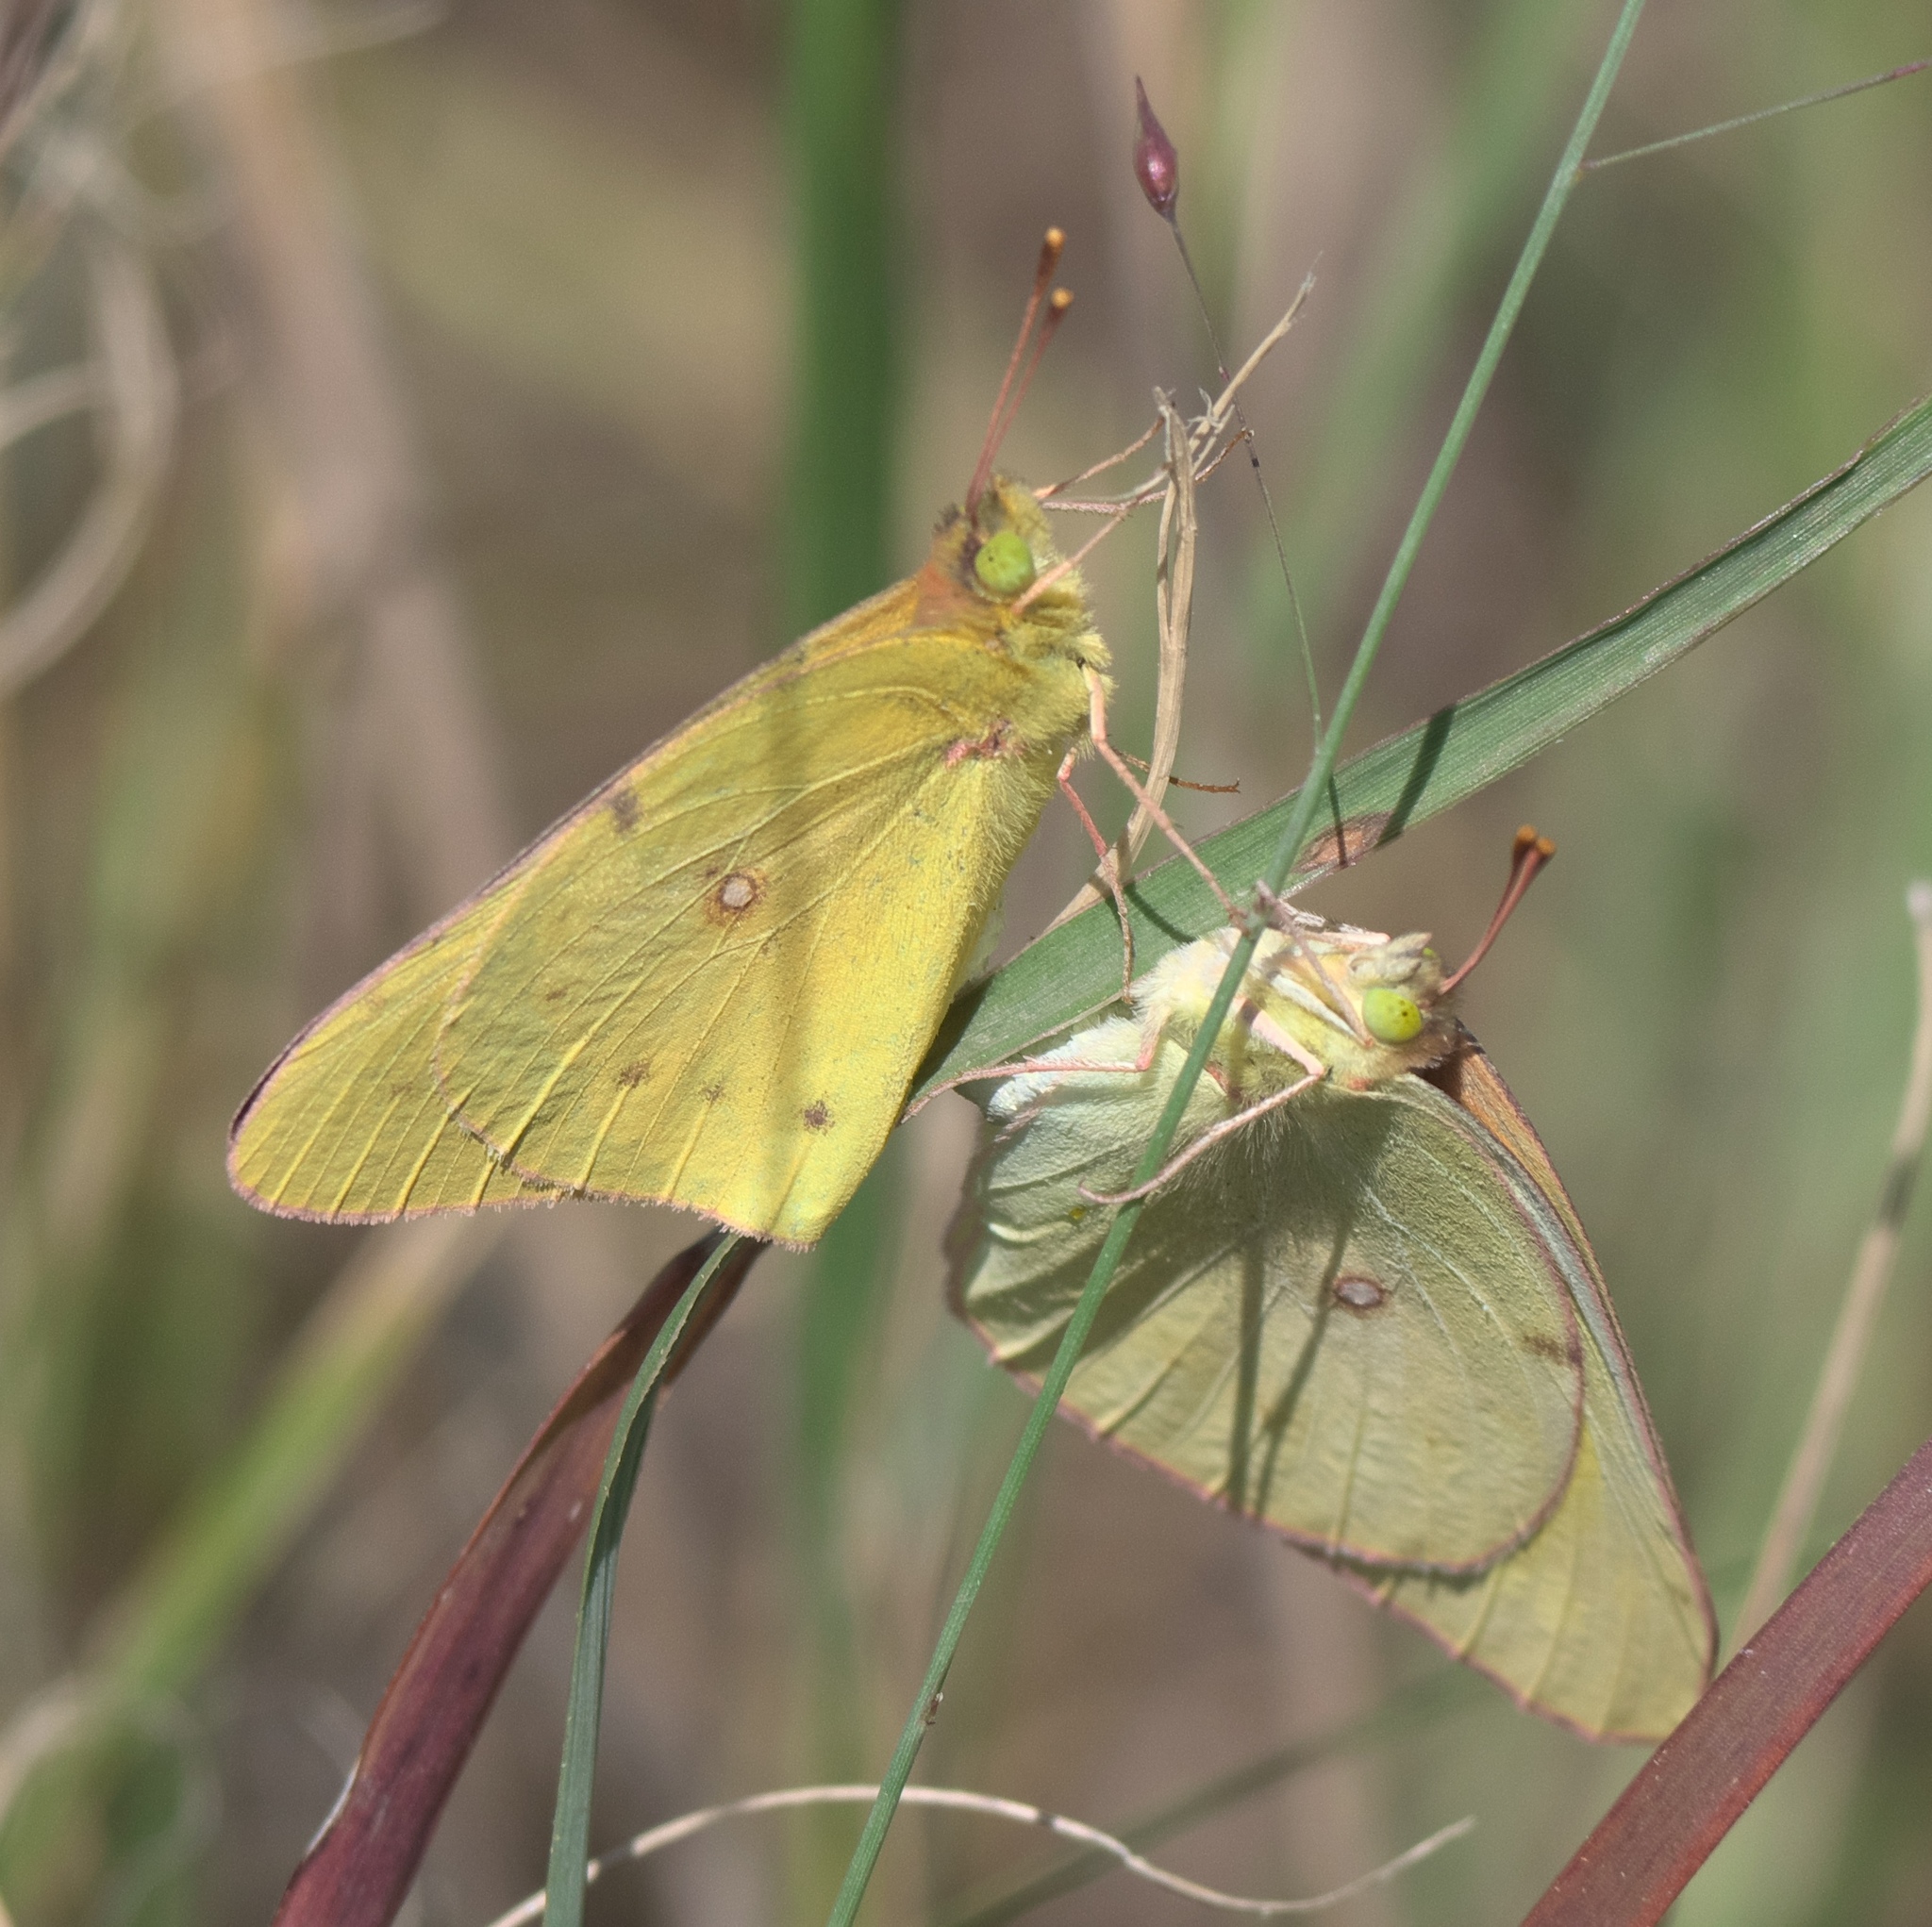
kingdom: Animalia
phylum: Arthropoda
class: Insecta
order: Lepidoptera
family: Pieridae
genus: Colias
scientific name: Colias eurytheme
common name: Alfalfa butterfly
